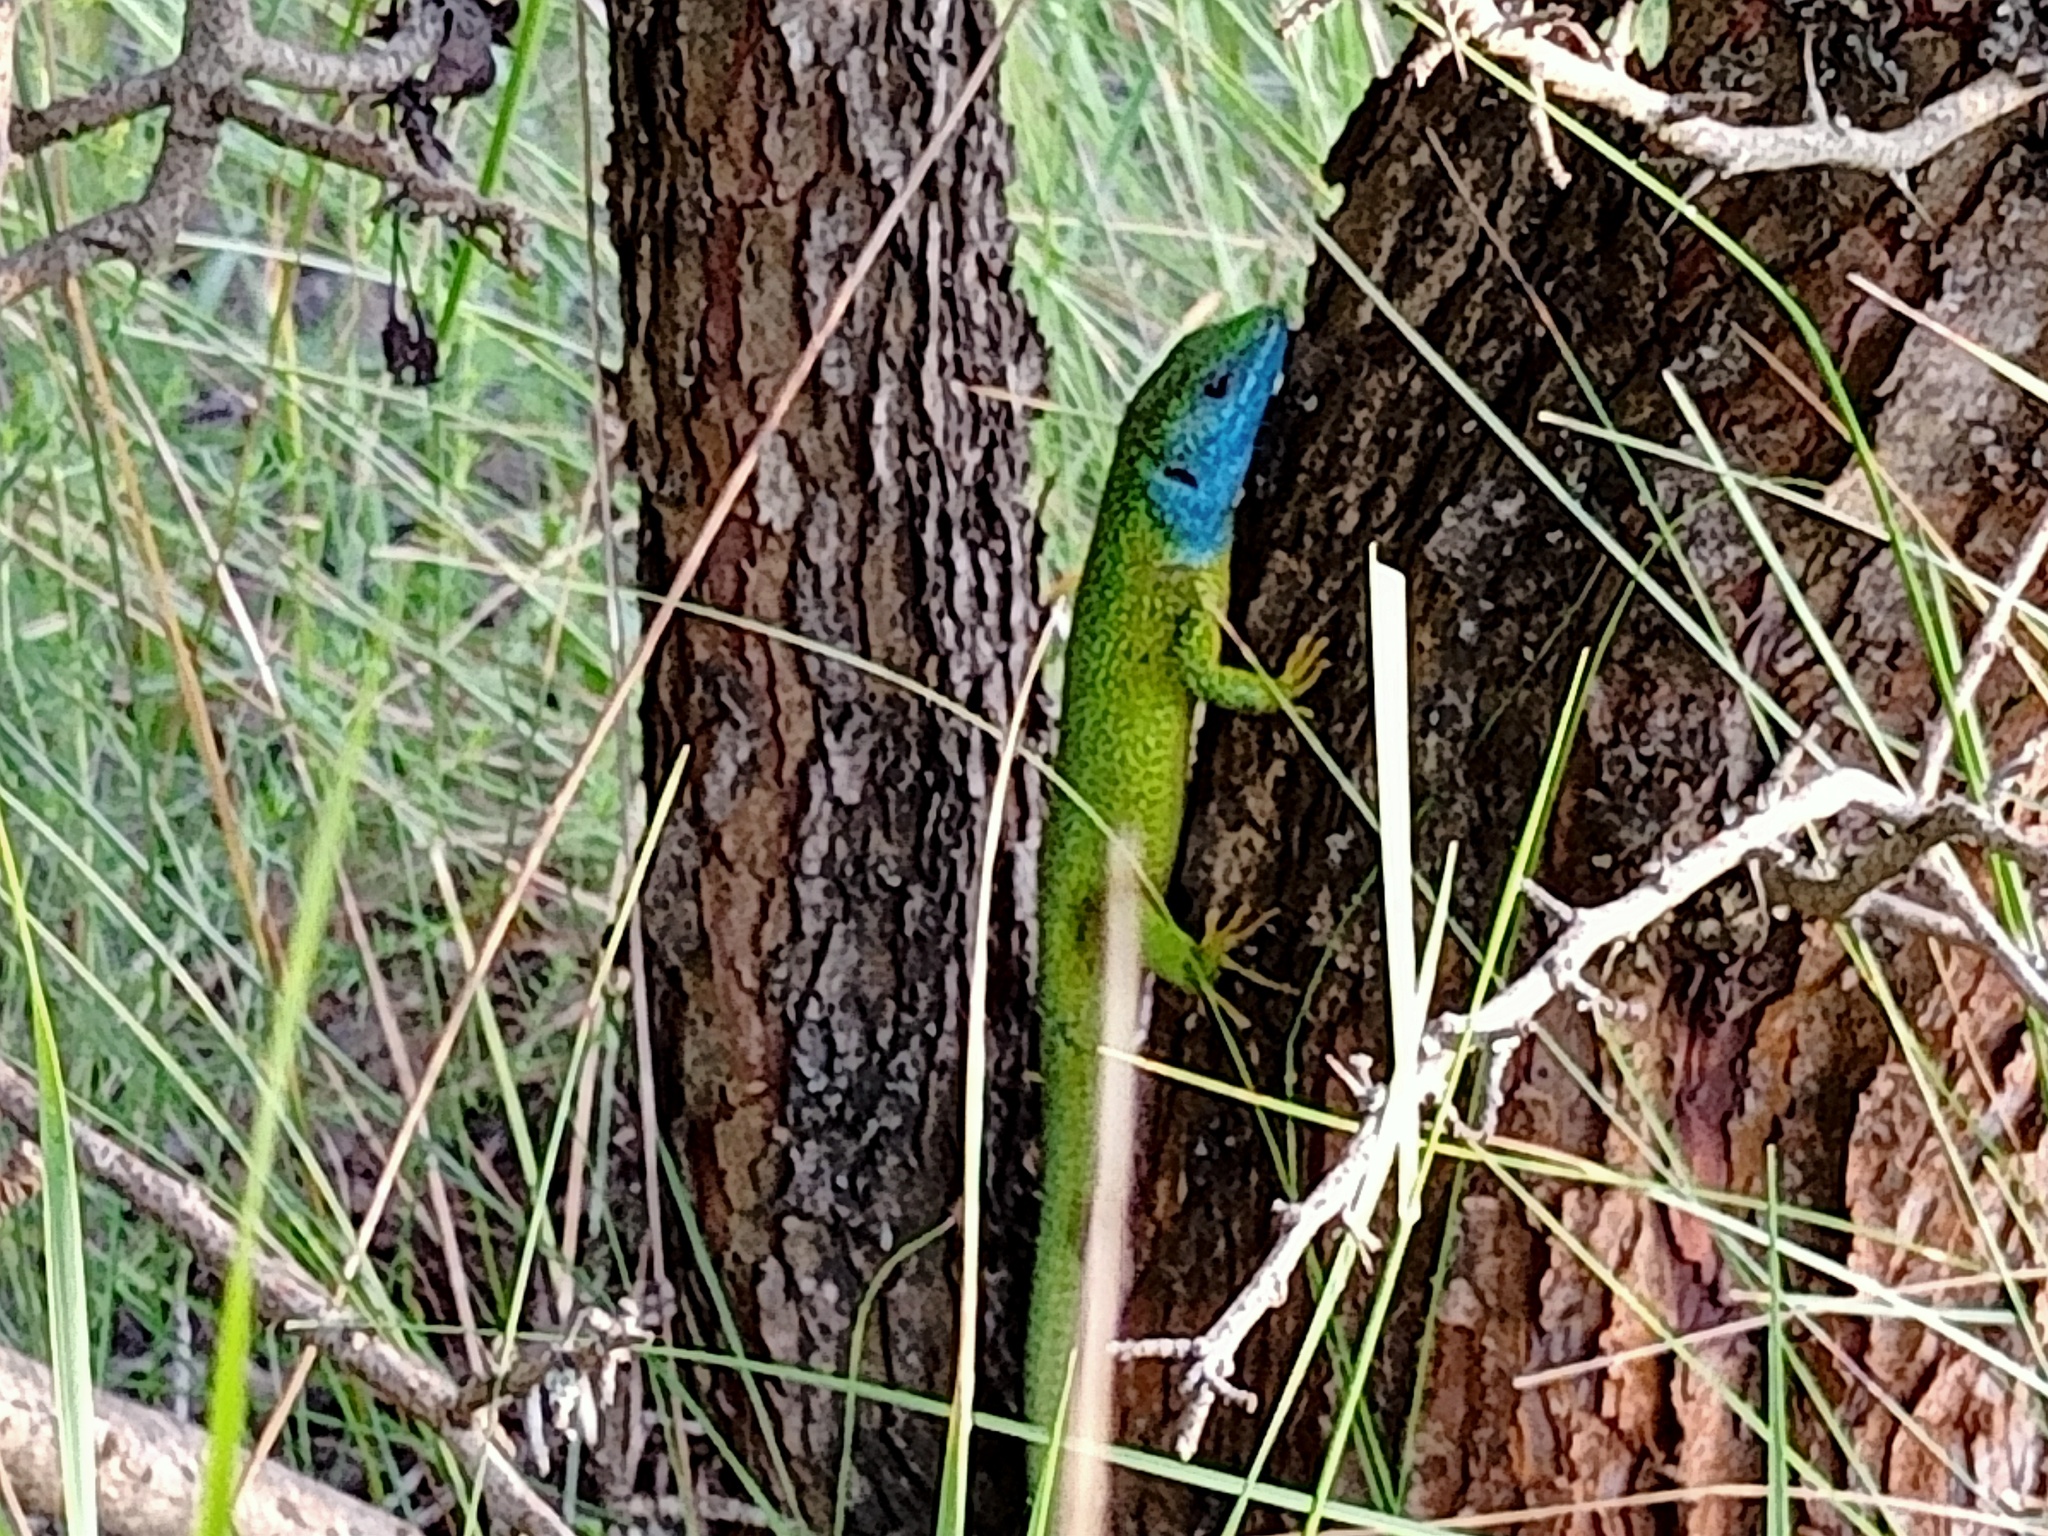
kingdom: Animalia
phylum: Chordata
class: Squamata
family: Lacertidae
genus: Lacerta
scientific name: Lacerta viridis
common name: European green lizard
